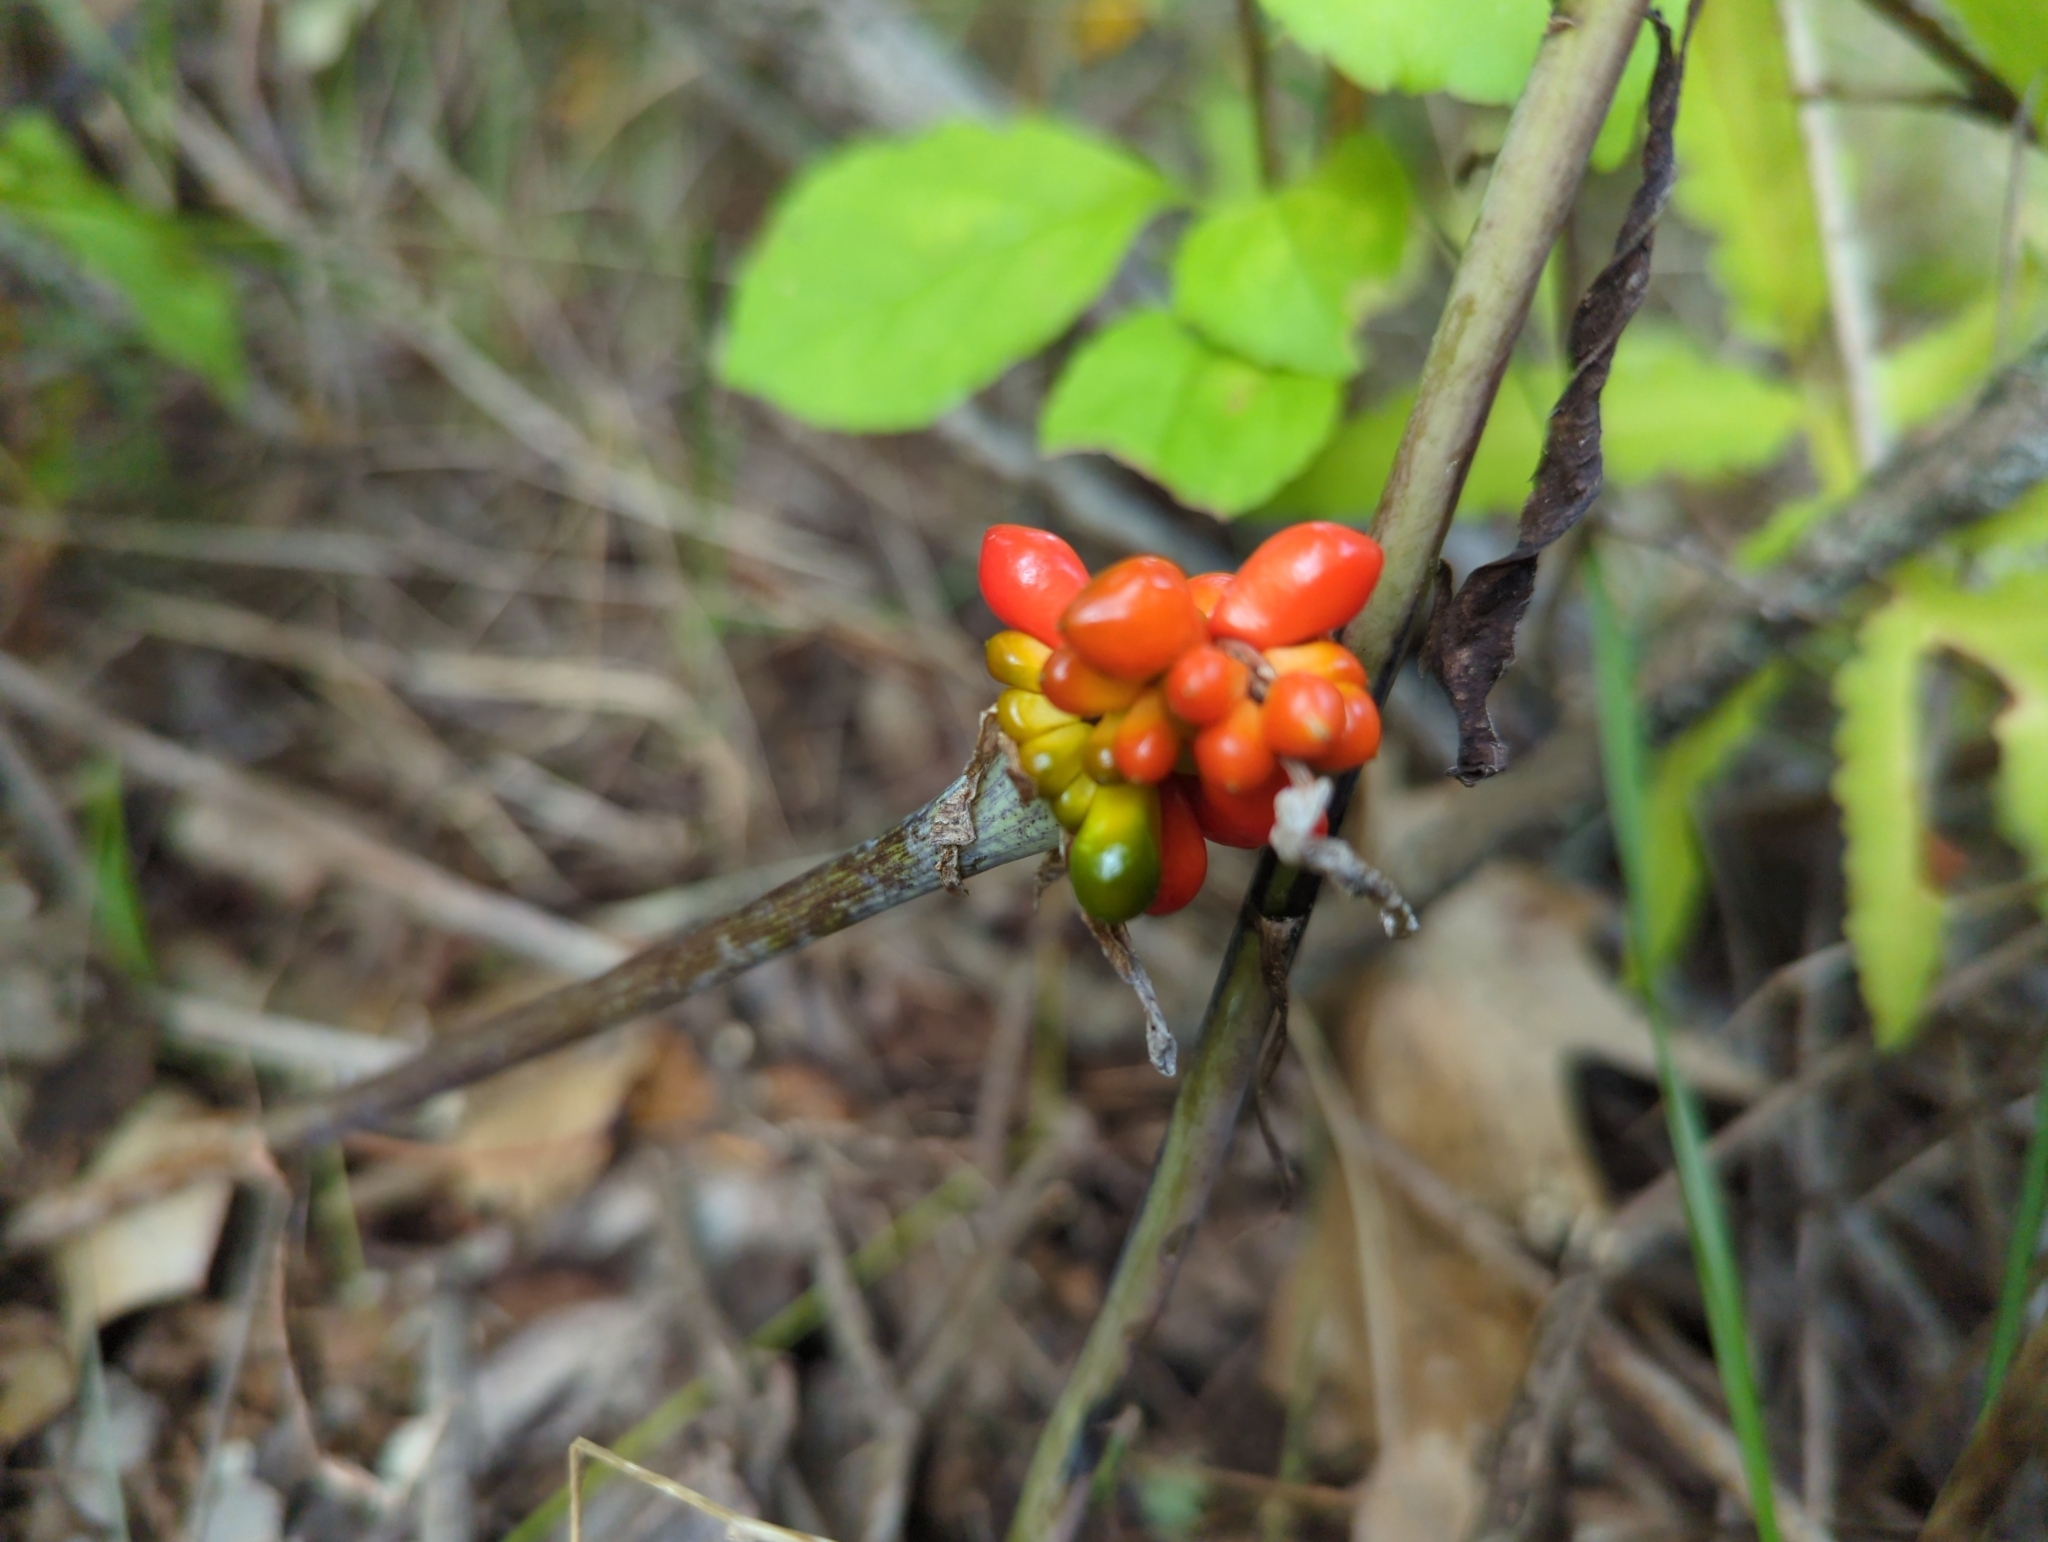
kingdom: Plantae
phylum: Tracheophyta
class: Liliopsida
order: Alismatales
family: Araceae
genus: Arisaema
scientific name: Arisaema triphyllum
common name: Jack-in-the-pulpit
